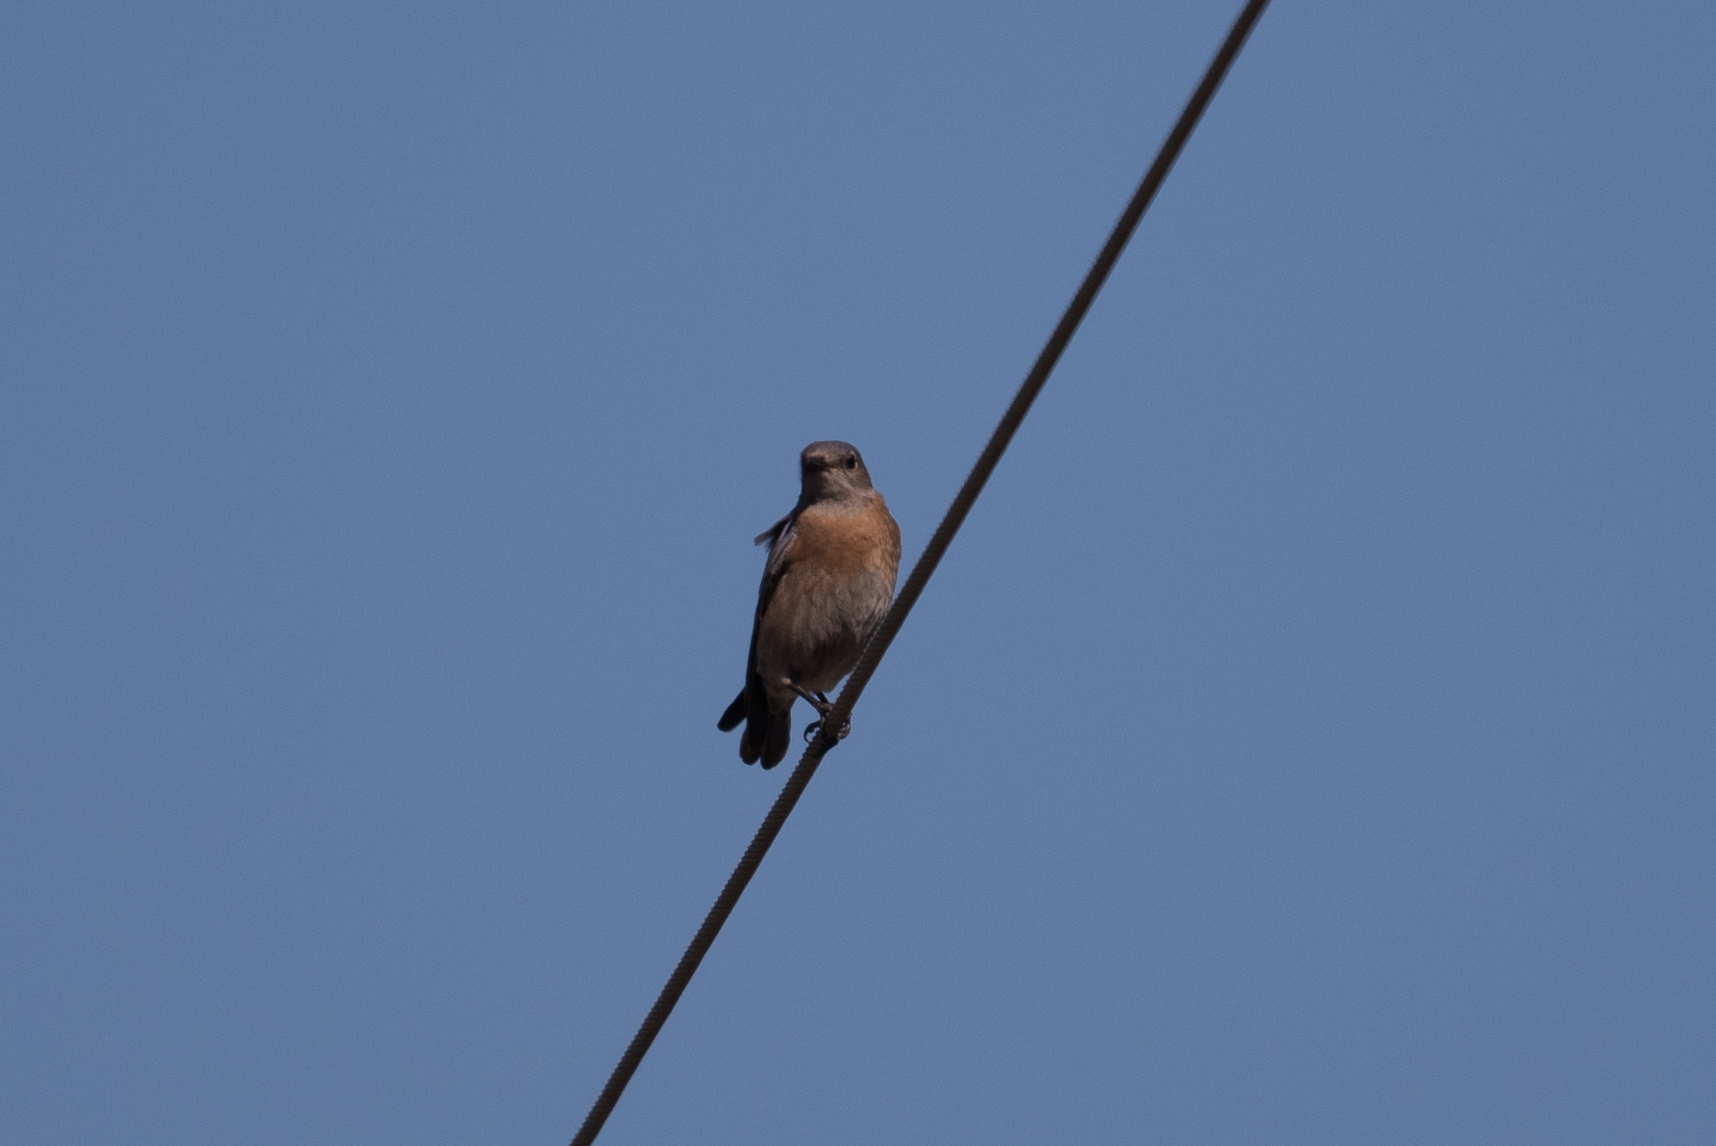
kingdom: Animalia
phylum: Chordata
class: Aves
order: Passeriformes
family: Turdidae
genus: Sialia
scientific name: Sialia mexicana
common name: Western bluebird
